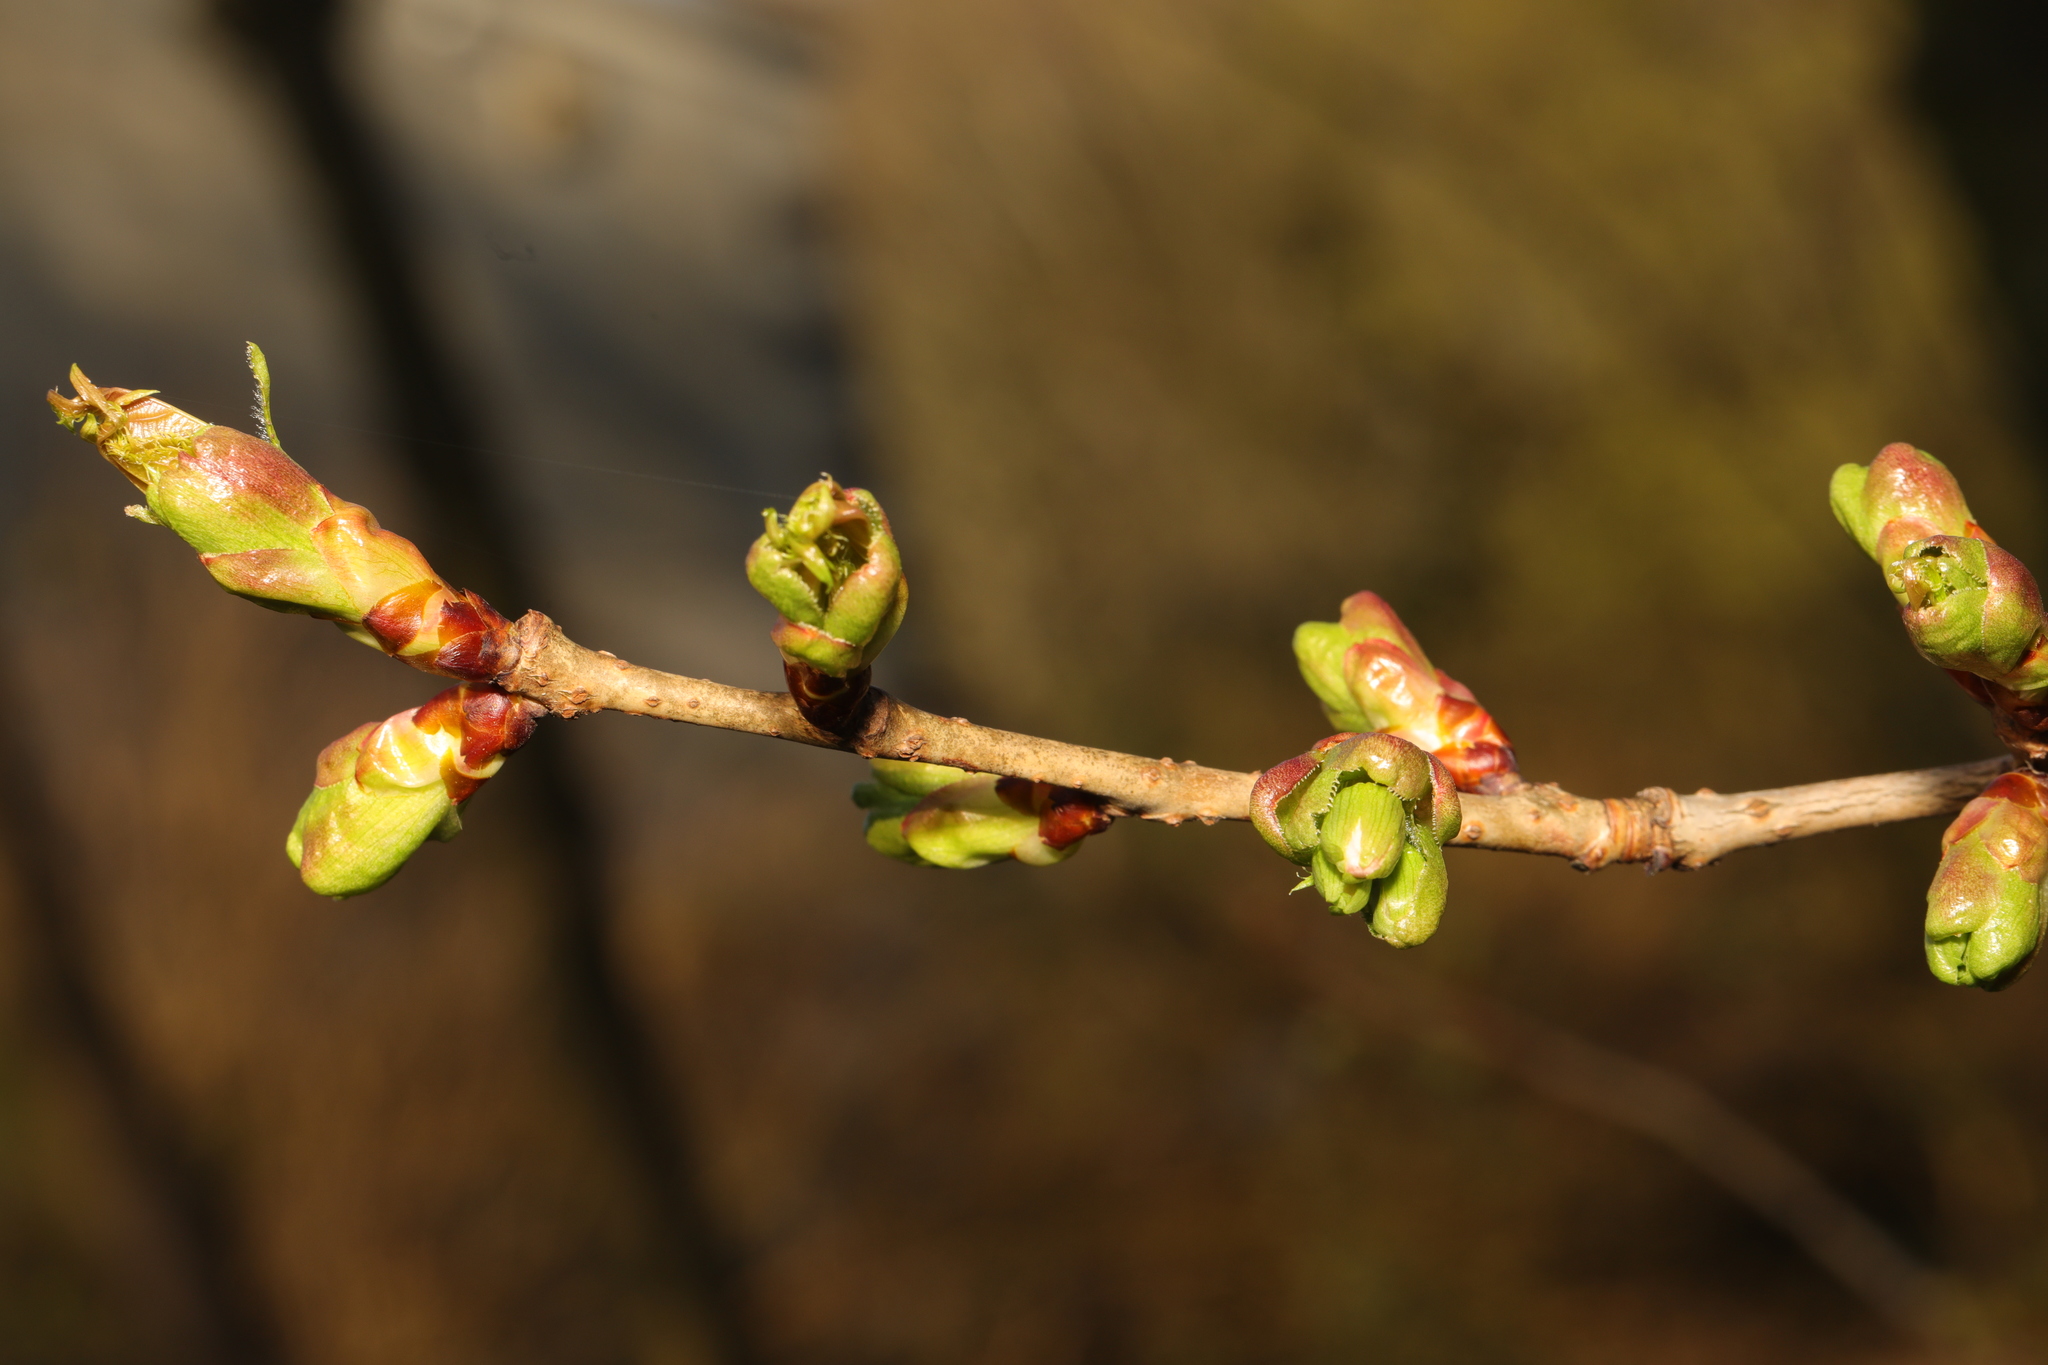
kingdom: Plantae
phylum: Tracheophyta
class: Magnoliopsida
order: Rosales
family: Rosaceae
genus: Crataegus
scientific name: Crataegus monogyna
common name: Hawthorn
